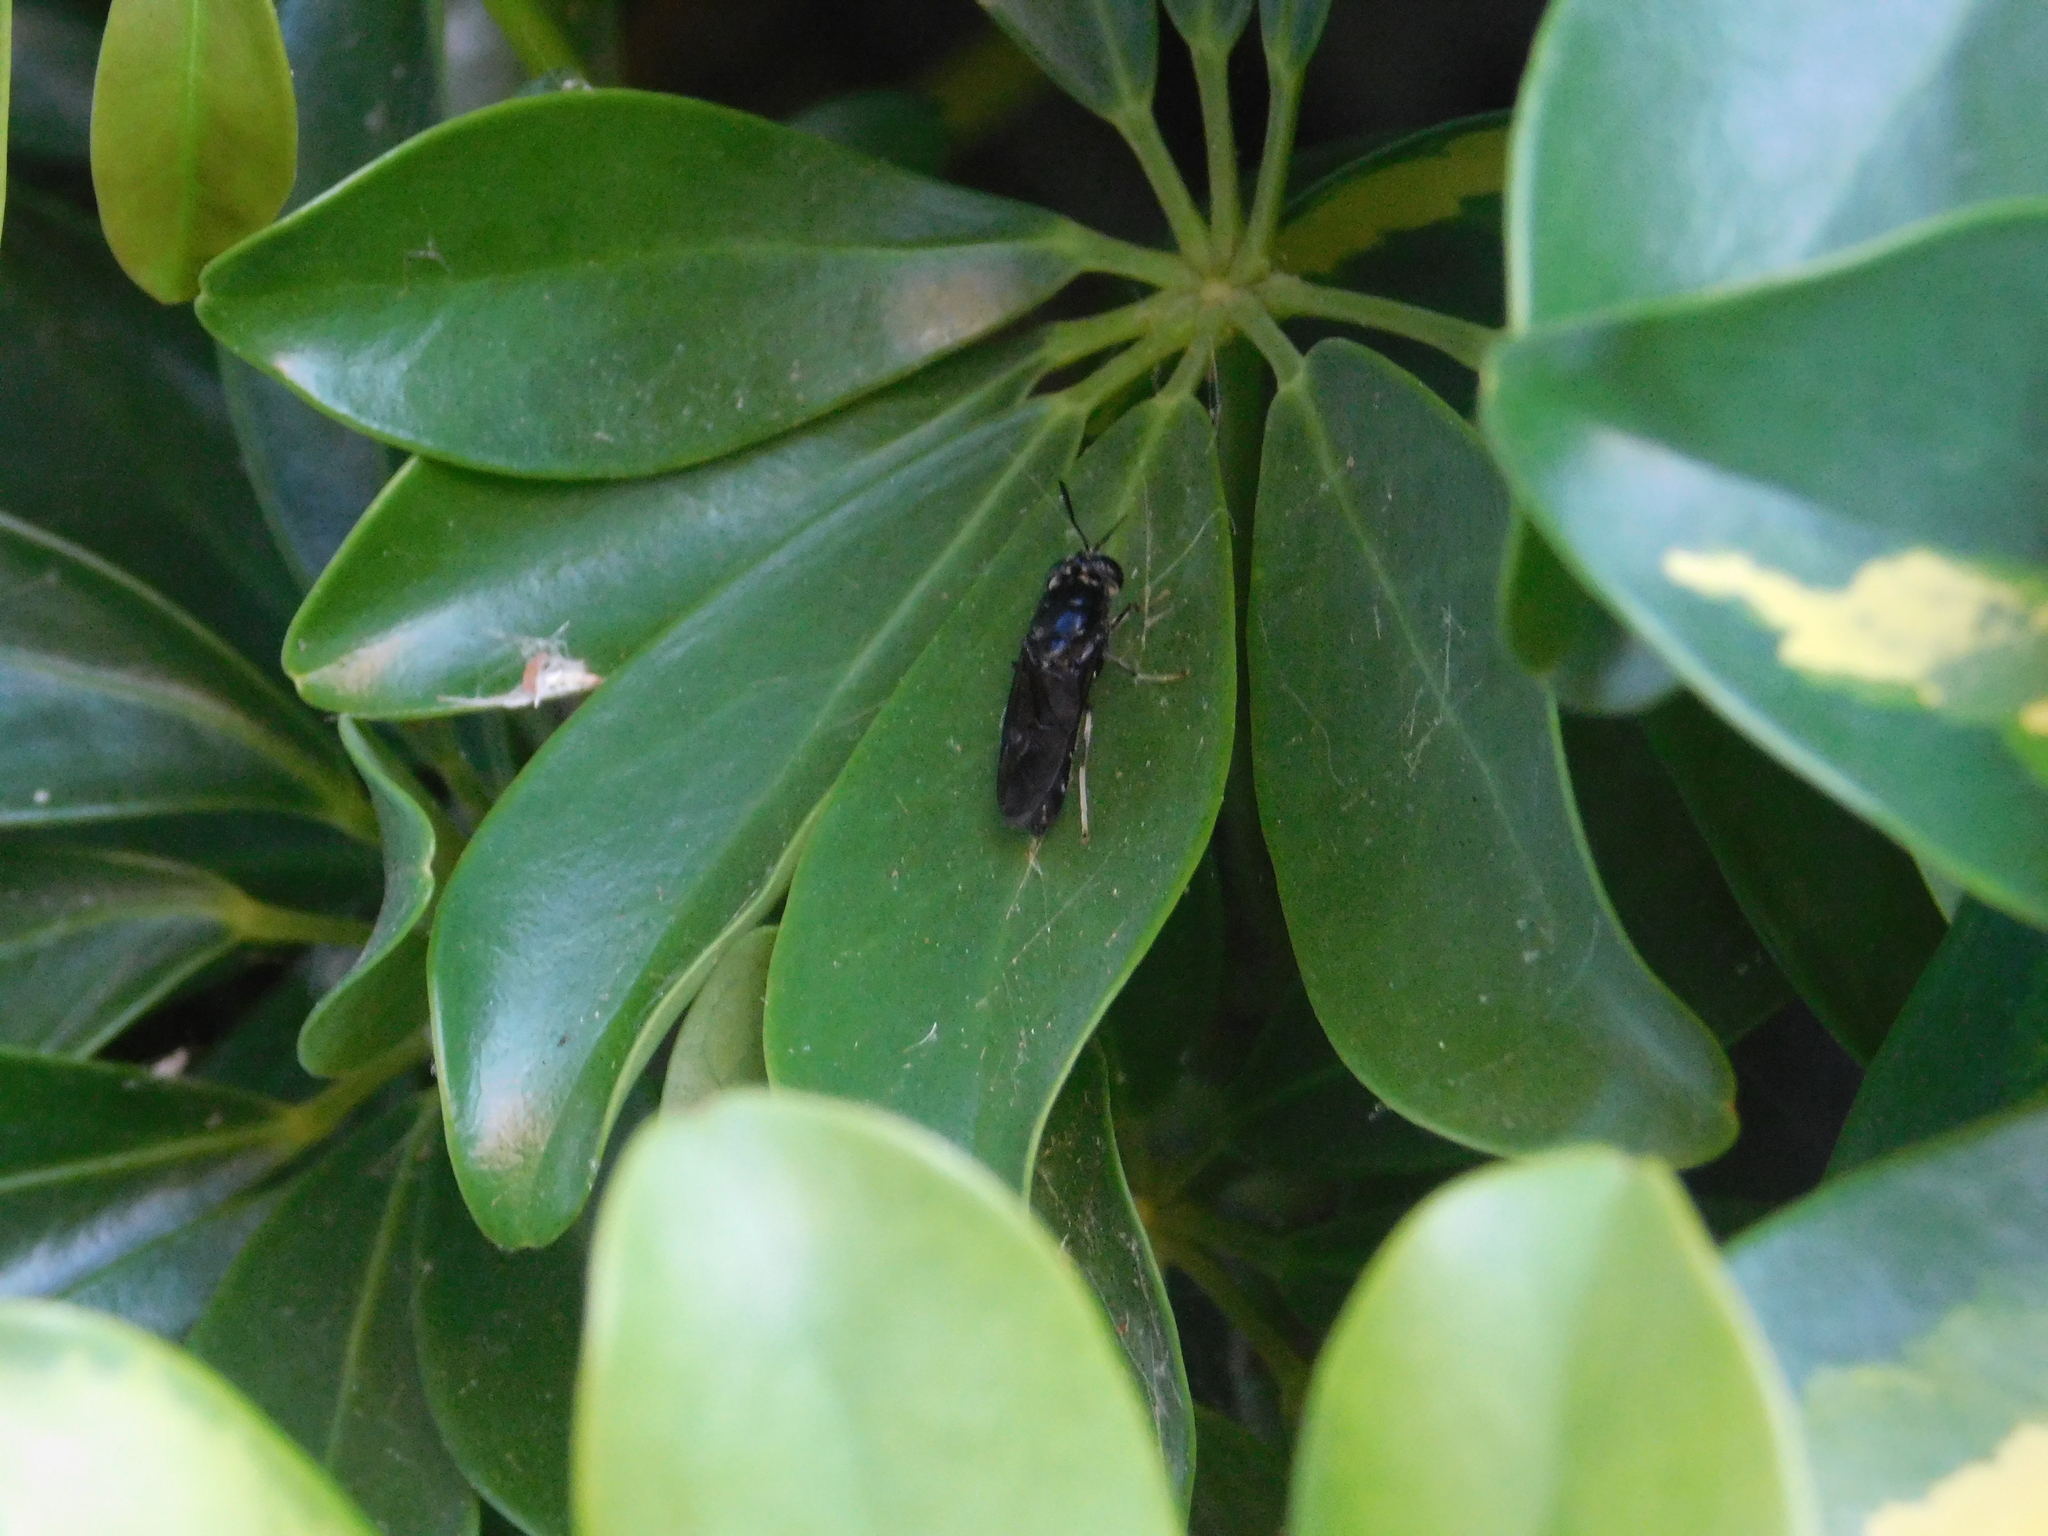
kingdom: Animalia
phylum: Arthropoda
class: Insecta
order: Diptera
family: Stratiomyidae
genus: Hermetia
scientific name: Hermetia illucens
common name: Black soldier fly
